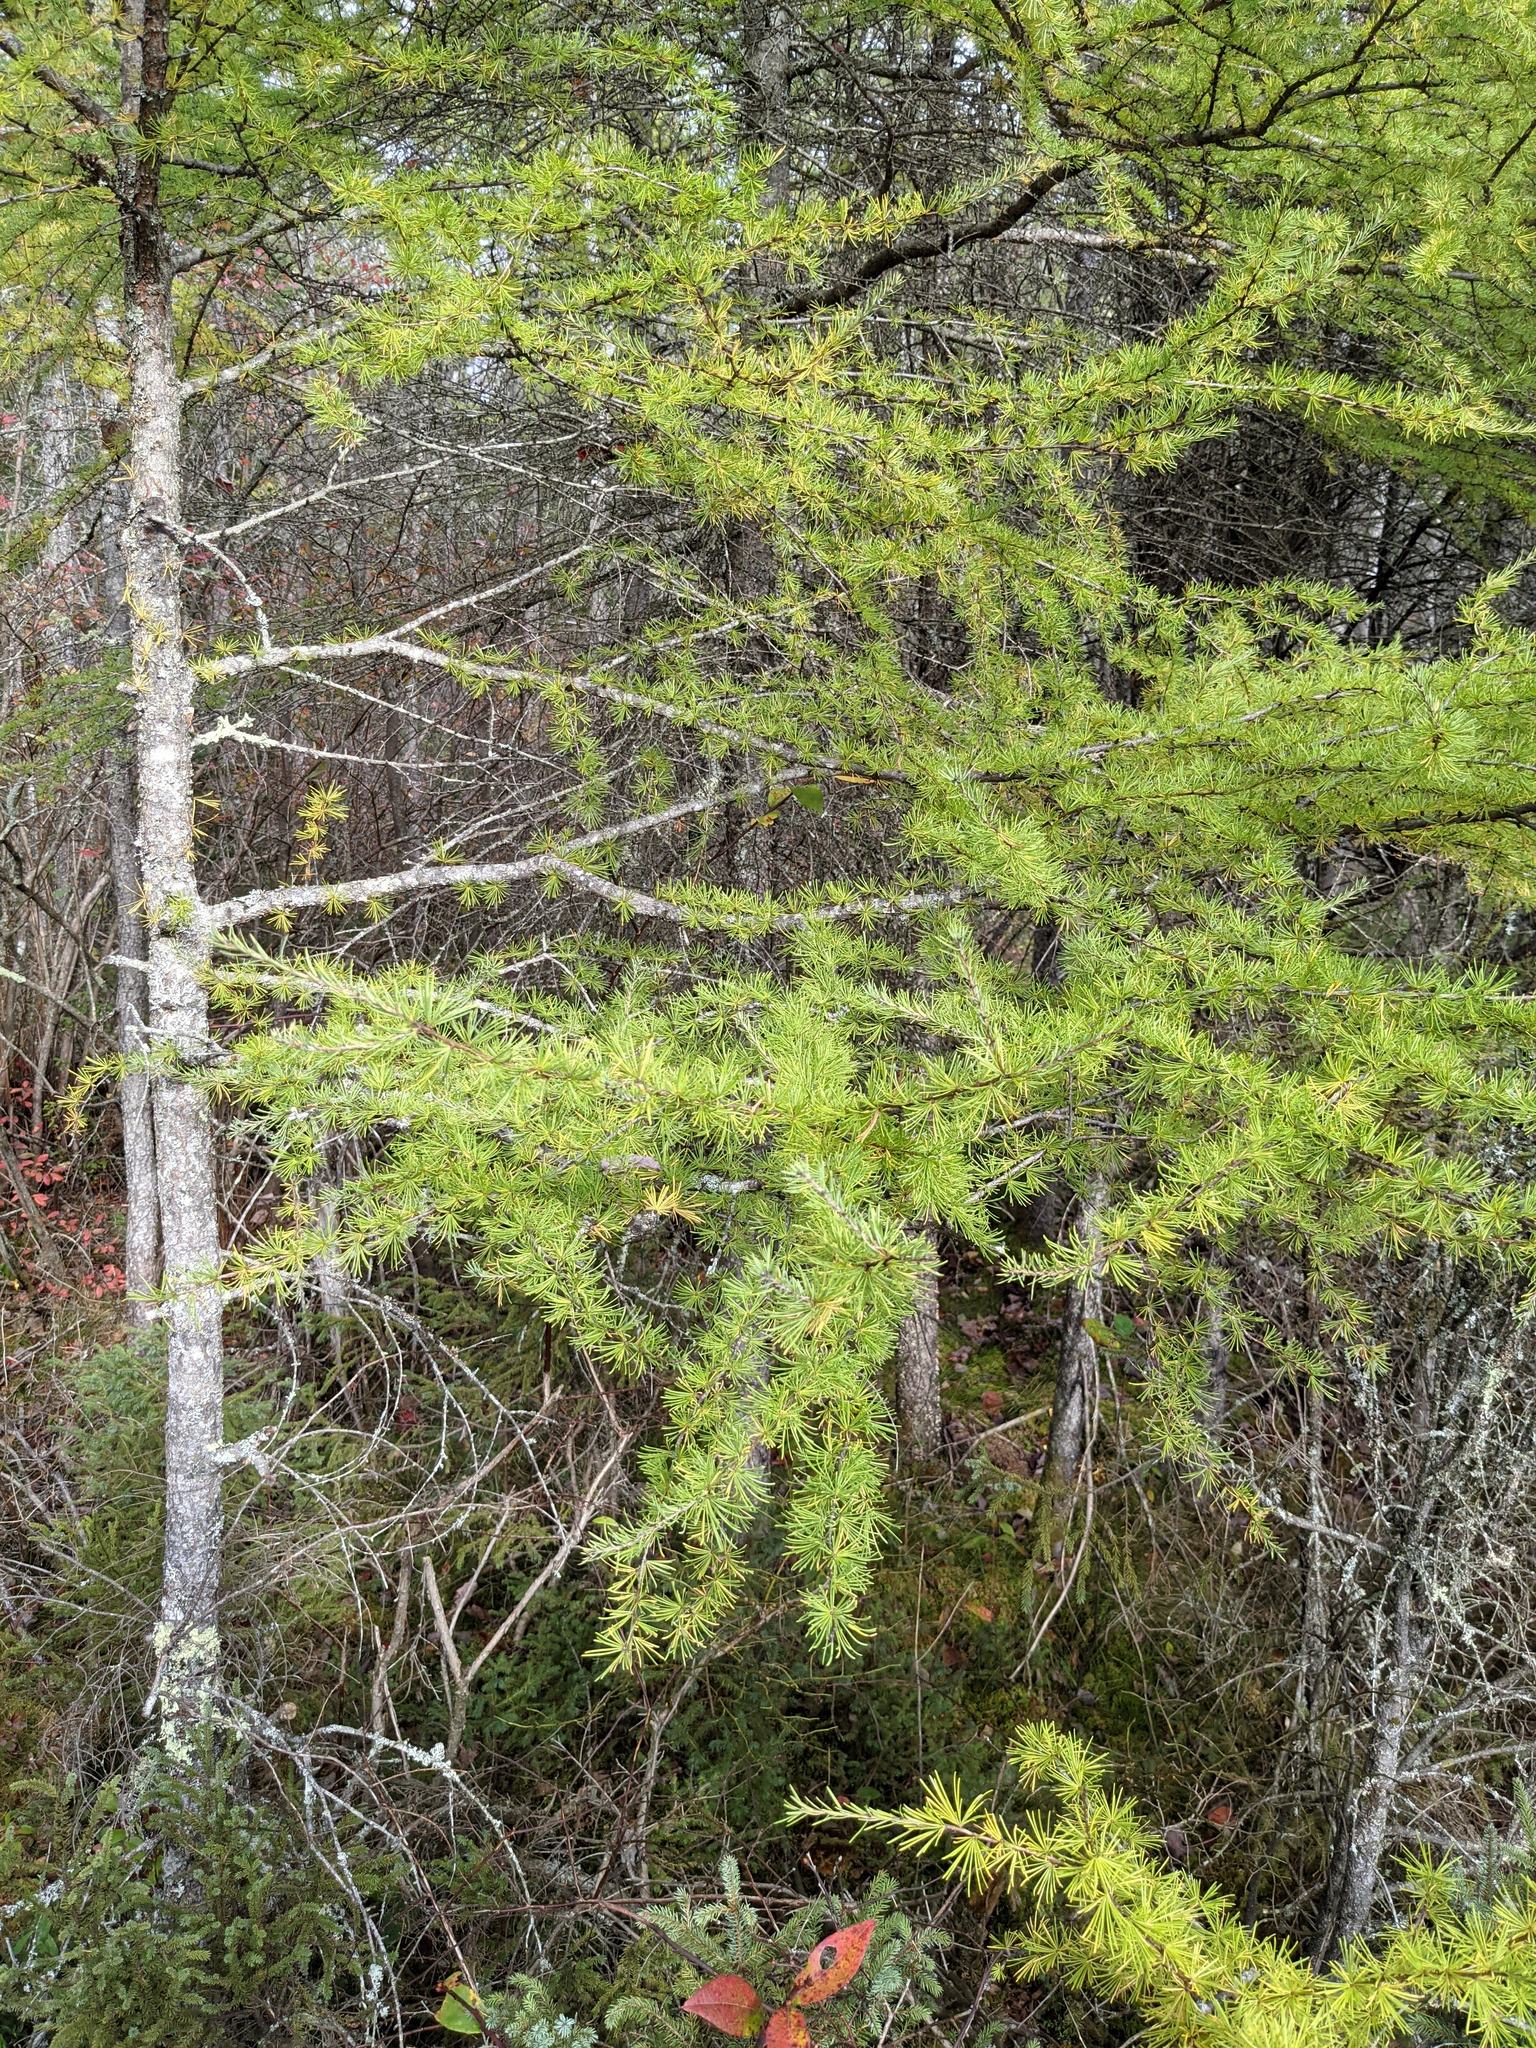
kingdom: Plantae
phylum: Tracheophyta
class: Pinopsida
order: Pinales
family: Pinaceae
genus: Larix
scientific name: Larix laricina
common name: American larch
